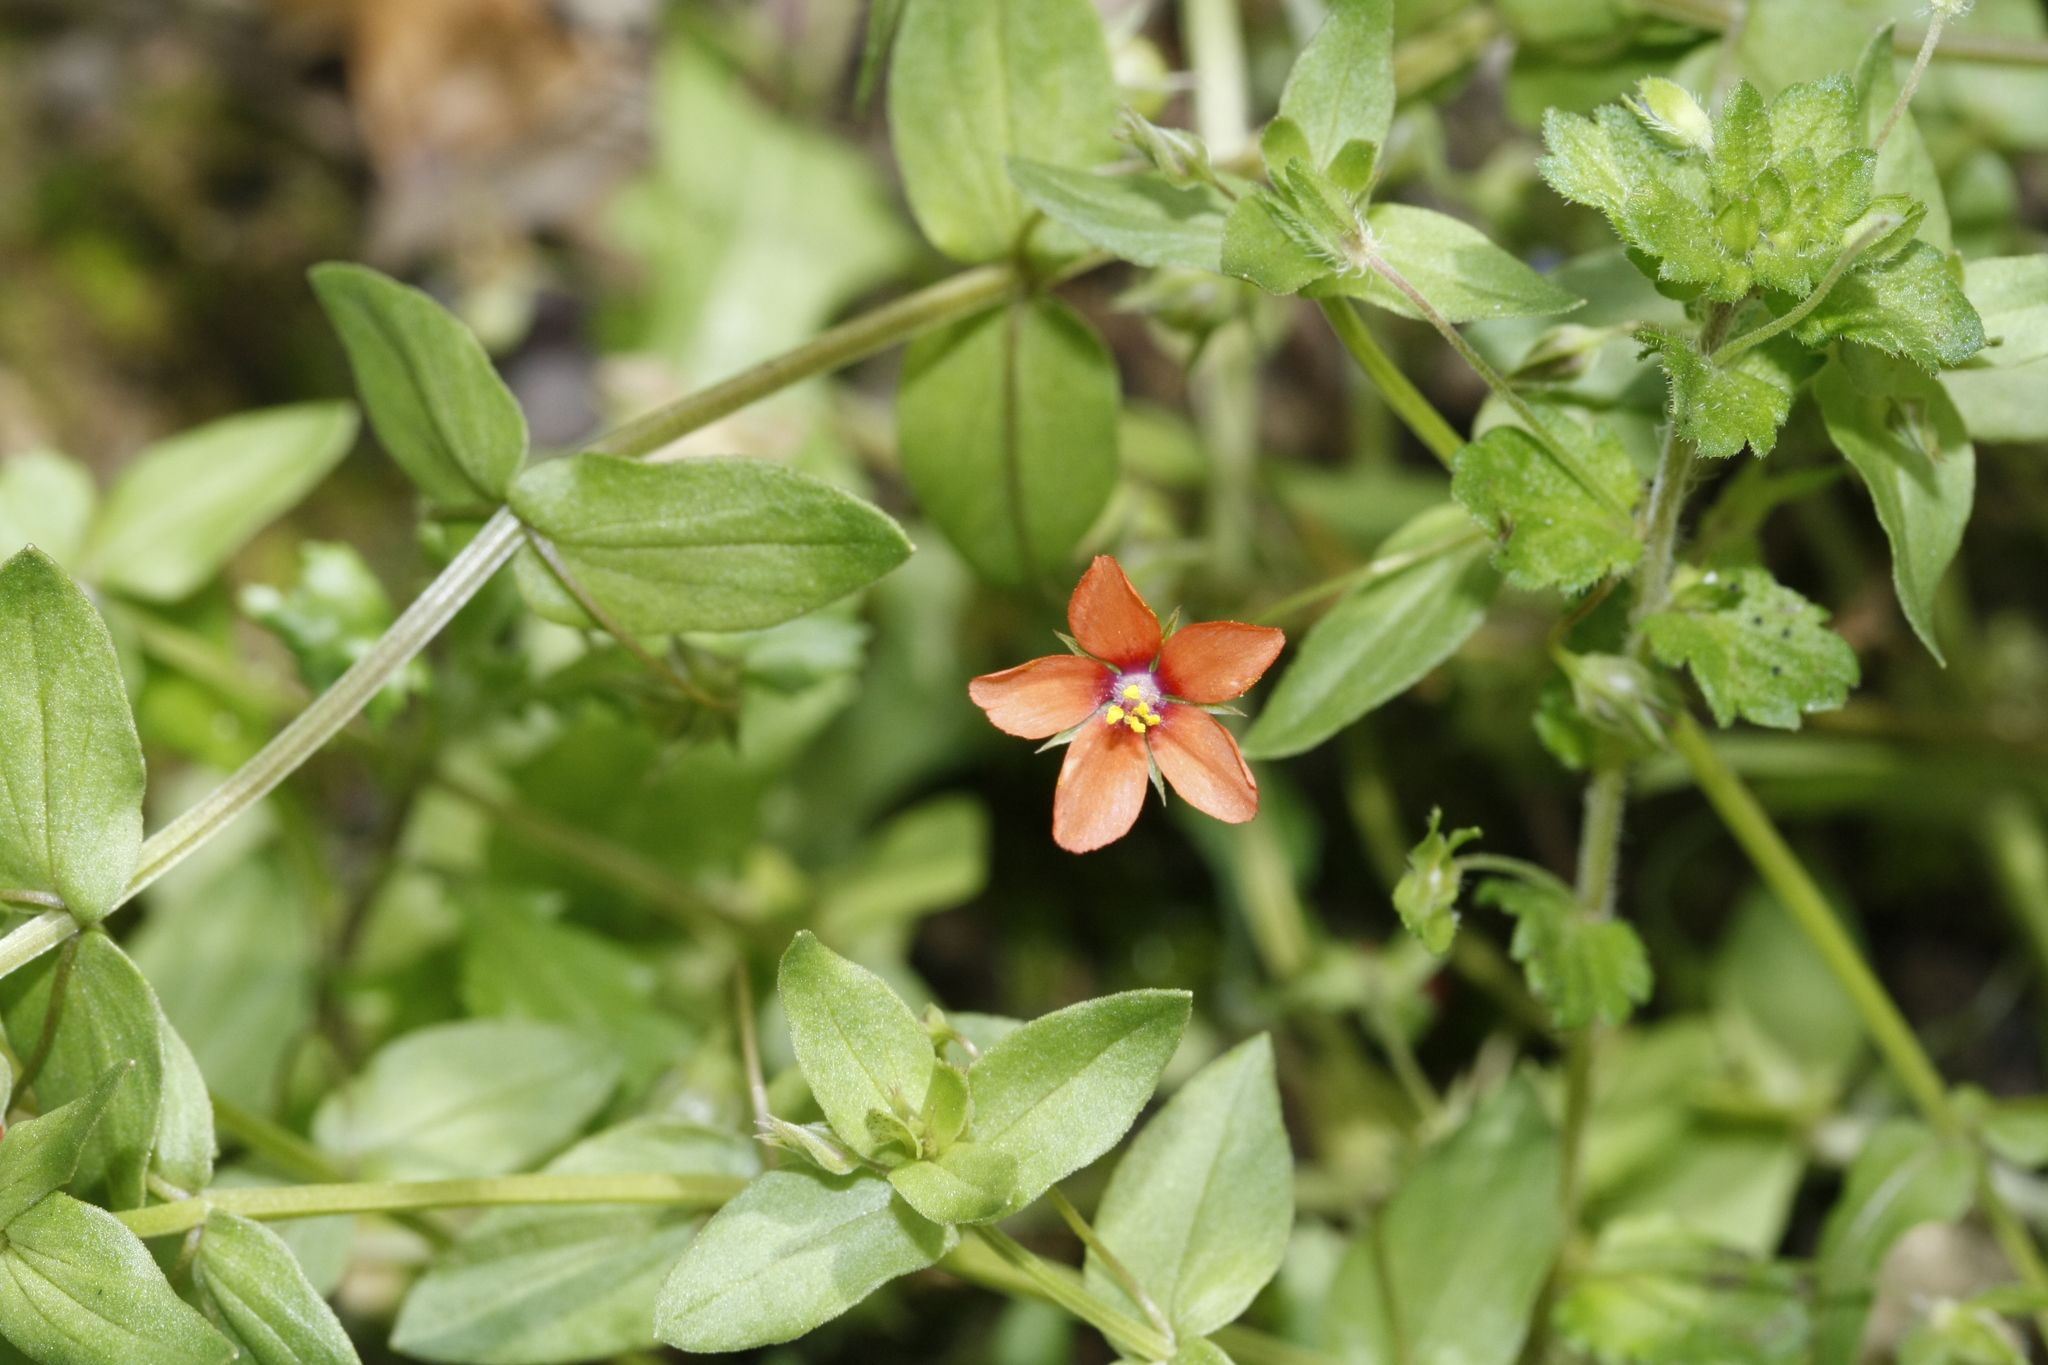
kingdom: Plantae
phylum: Tracheophyta
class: Magnoliopsida
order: Ericales
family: Primulaceae
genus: Lysimachia
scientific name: Lysimachia arvensis
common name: Scarlet pimpernel
